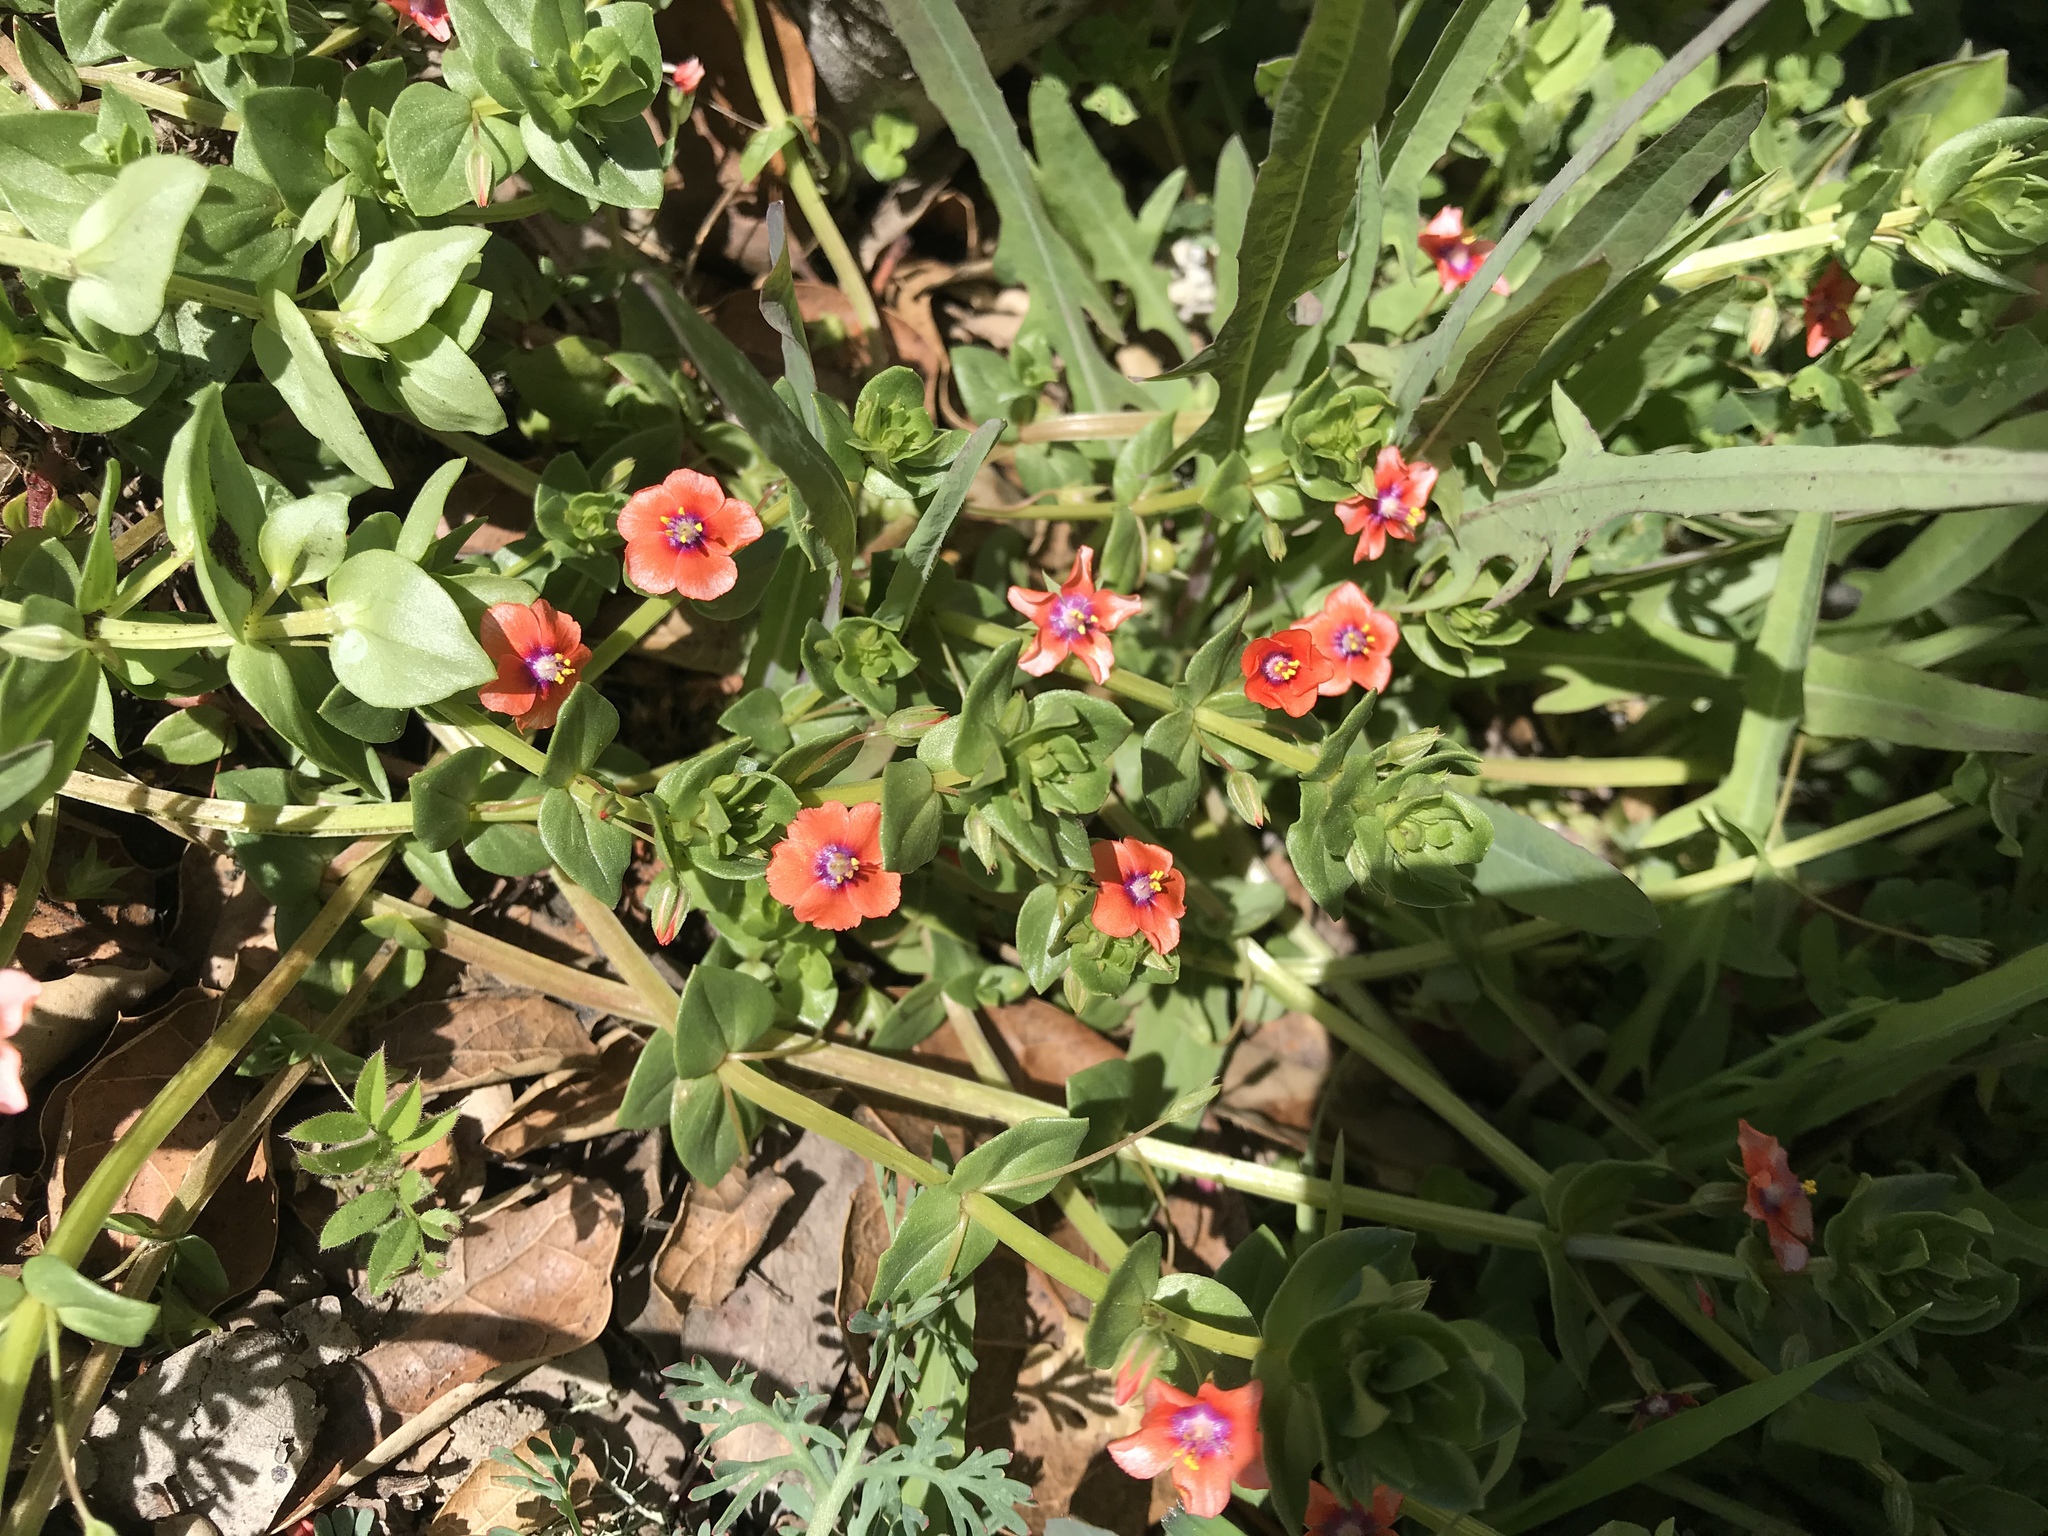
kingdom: Plantae
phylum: Tracheophyta
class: Magnoliopsida
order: Ericales
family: Primulaceae
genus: Lysimachia
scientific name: Lysimachia arvensis
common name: Scarlet pimpernel
